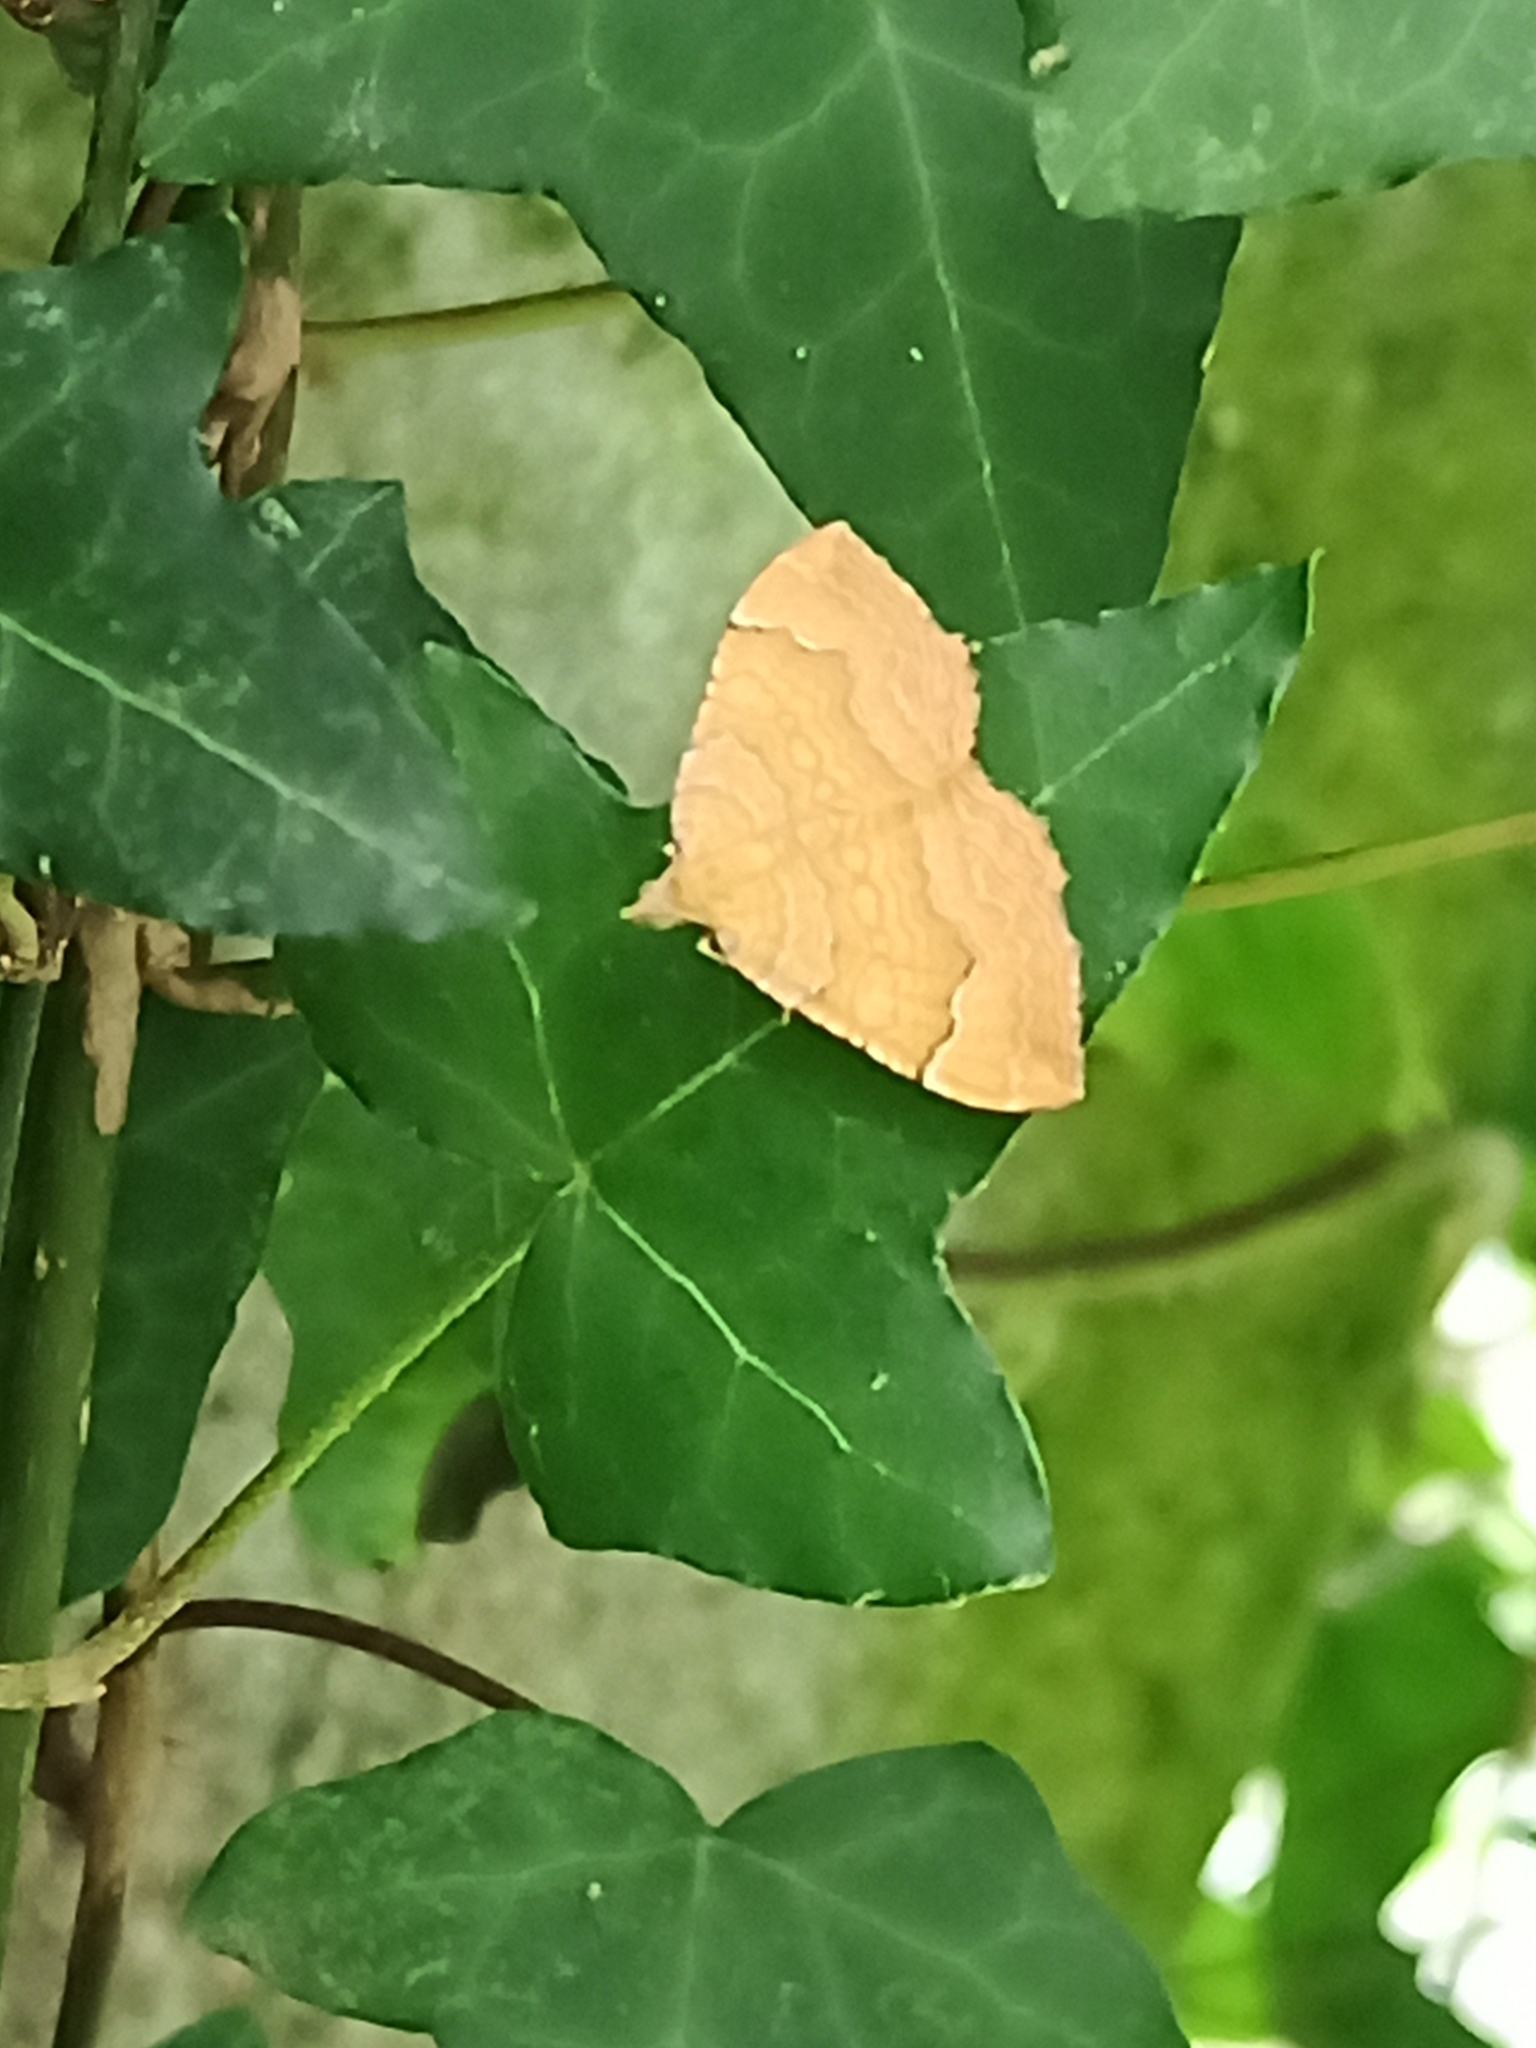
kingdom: Animalia
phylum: Arthropoda
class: Insecta
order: Lepidoptera
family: Geometridae
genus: Camptogramma
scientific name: Camptogramma bilineata
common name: Yellow shell
